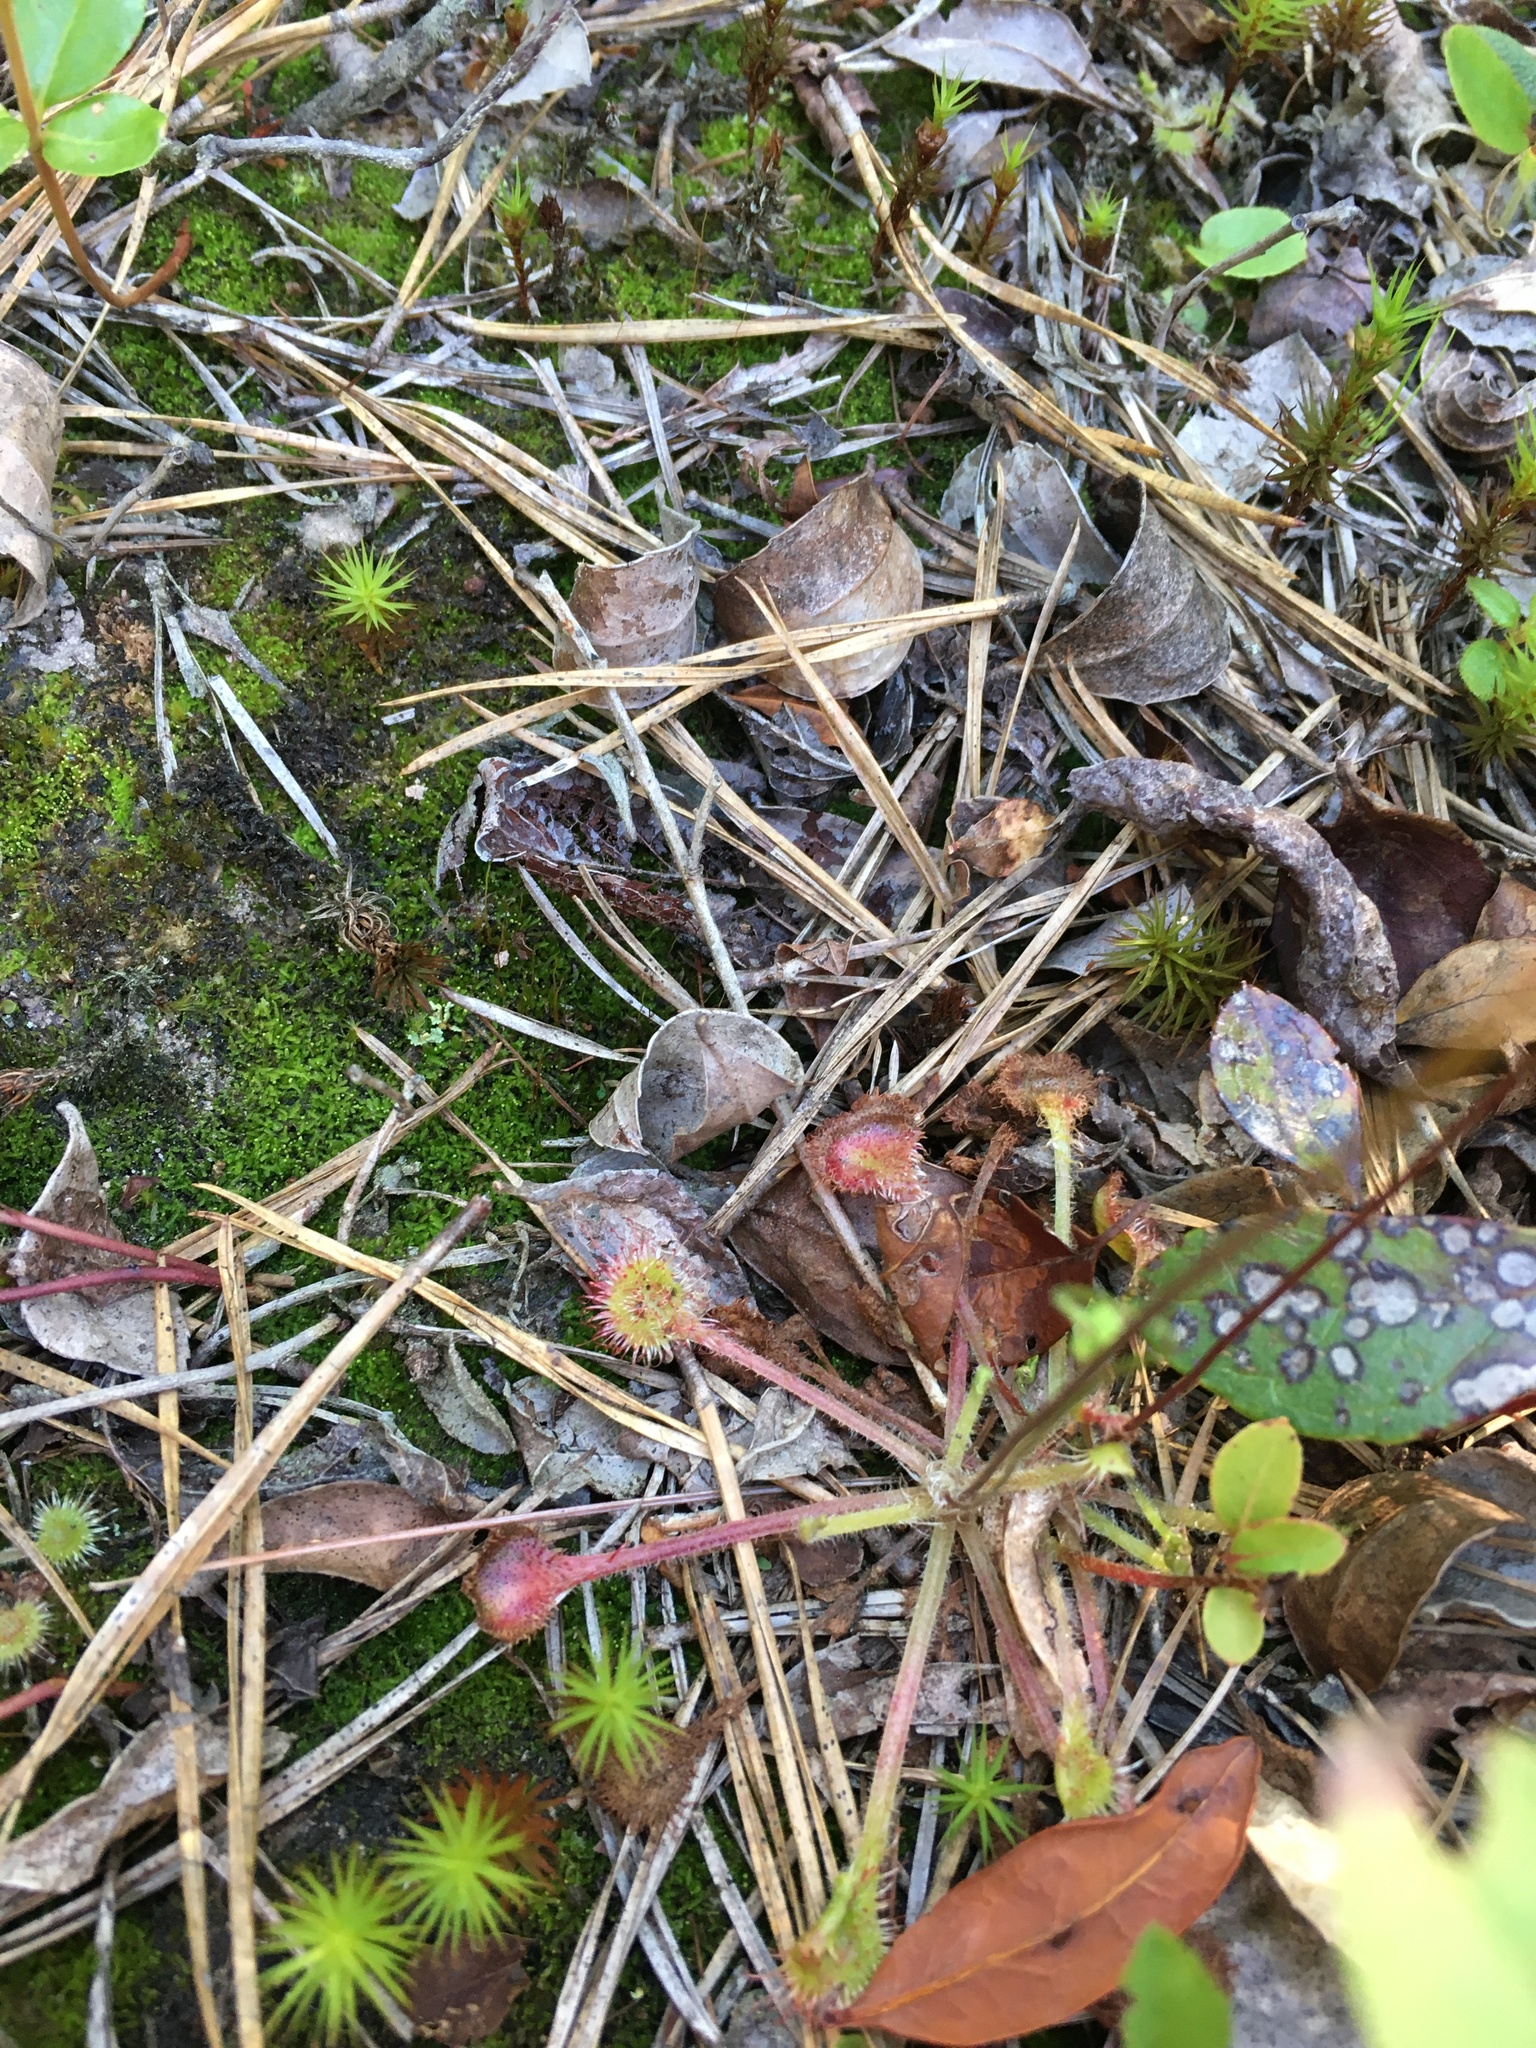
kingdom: Plantae
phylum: Tracheophyta
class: Magnoliopsida
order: Caryophyllales
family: Droseraceae
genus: Drosera
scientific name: Drosera rotundifolia
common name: Round-leaved sundew
